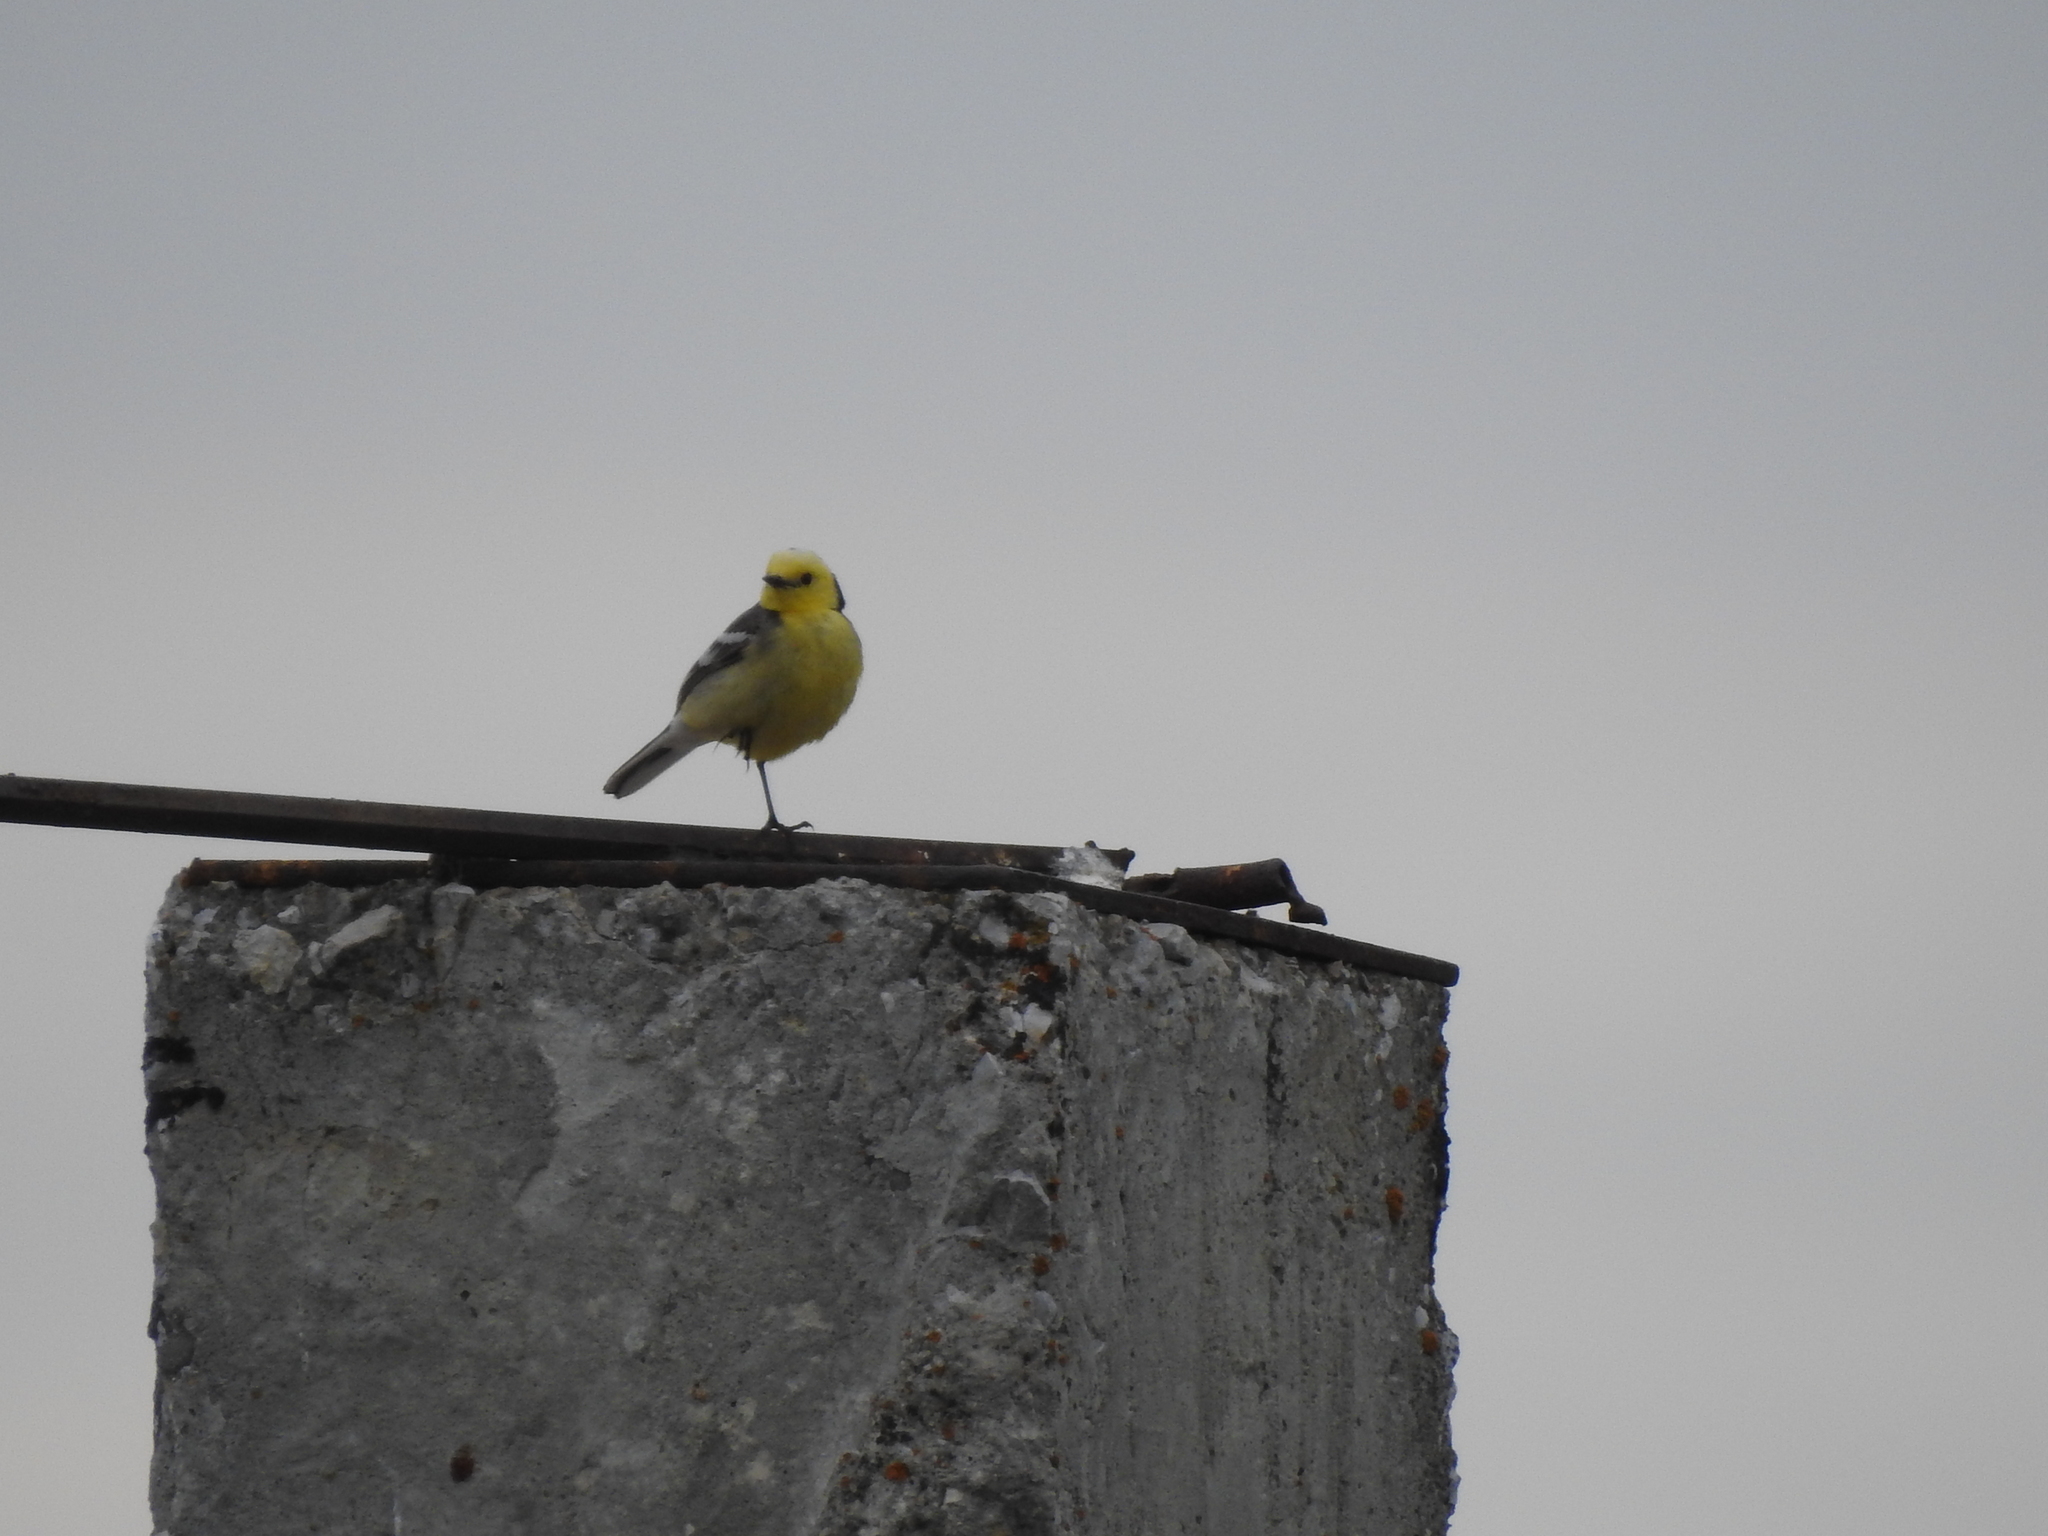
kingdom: Animalia
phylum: Chordata
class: Aves
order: Passeriformes
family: Motacillidae
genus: Motacilla
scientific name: Motacilla citreola
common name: Citrine wagtail
